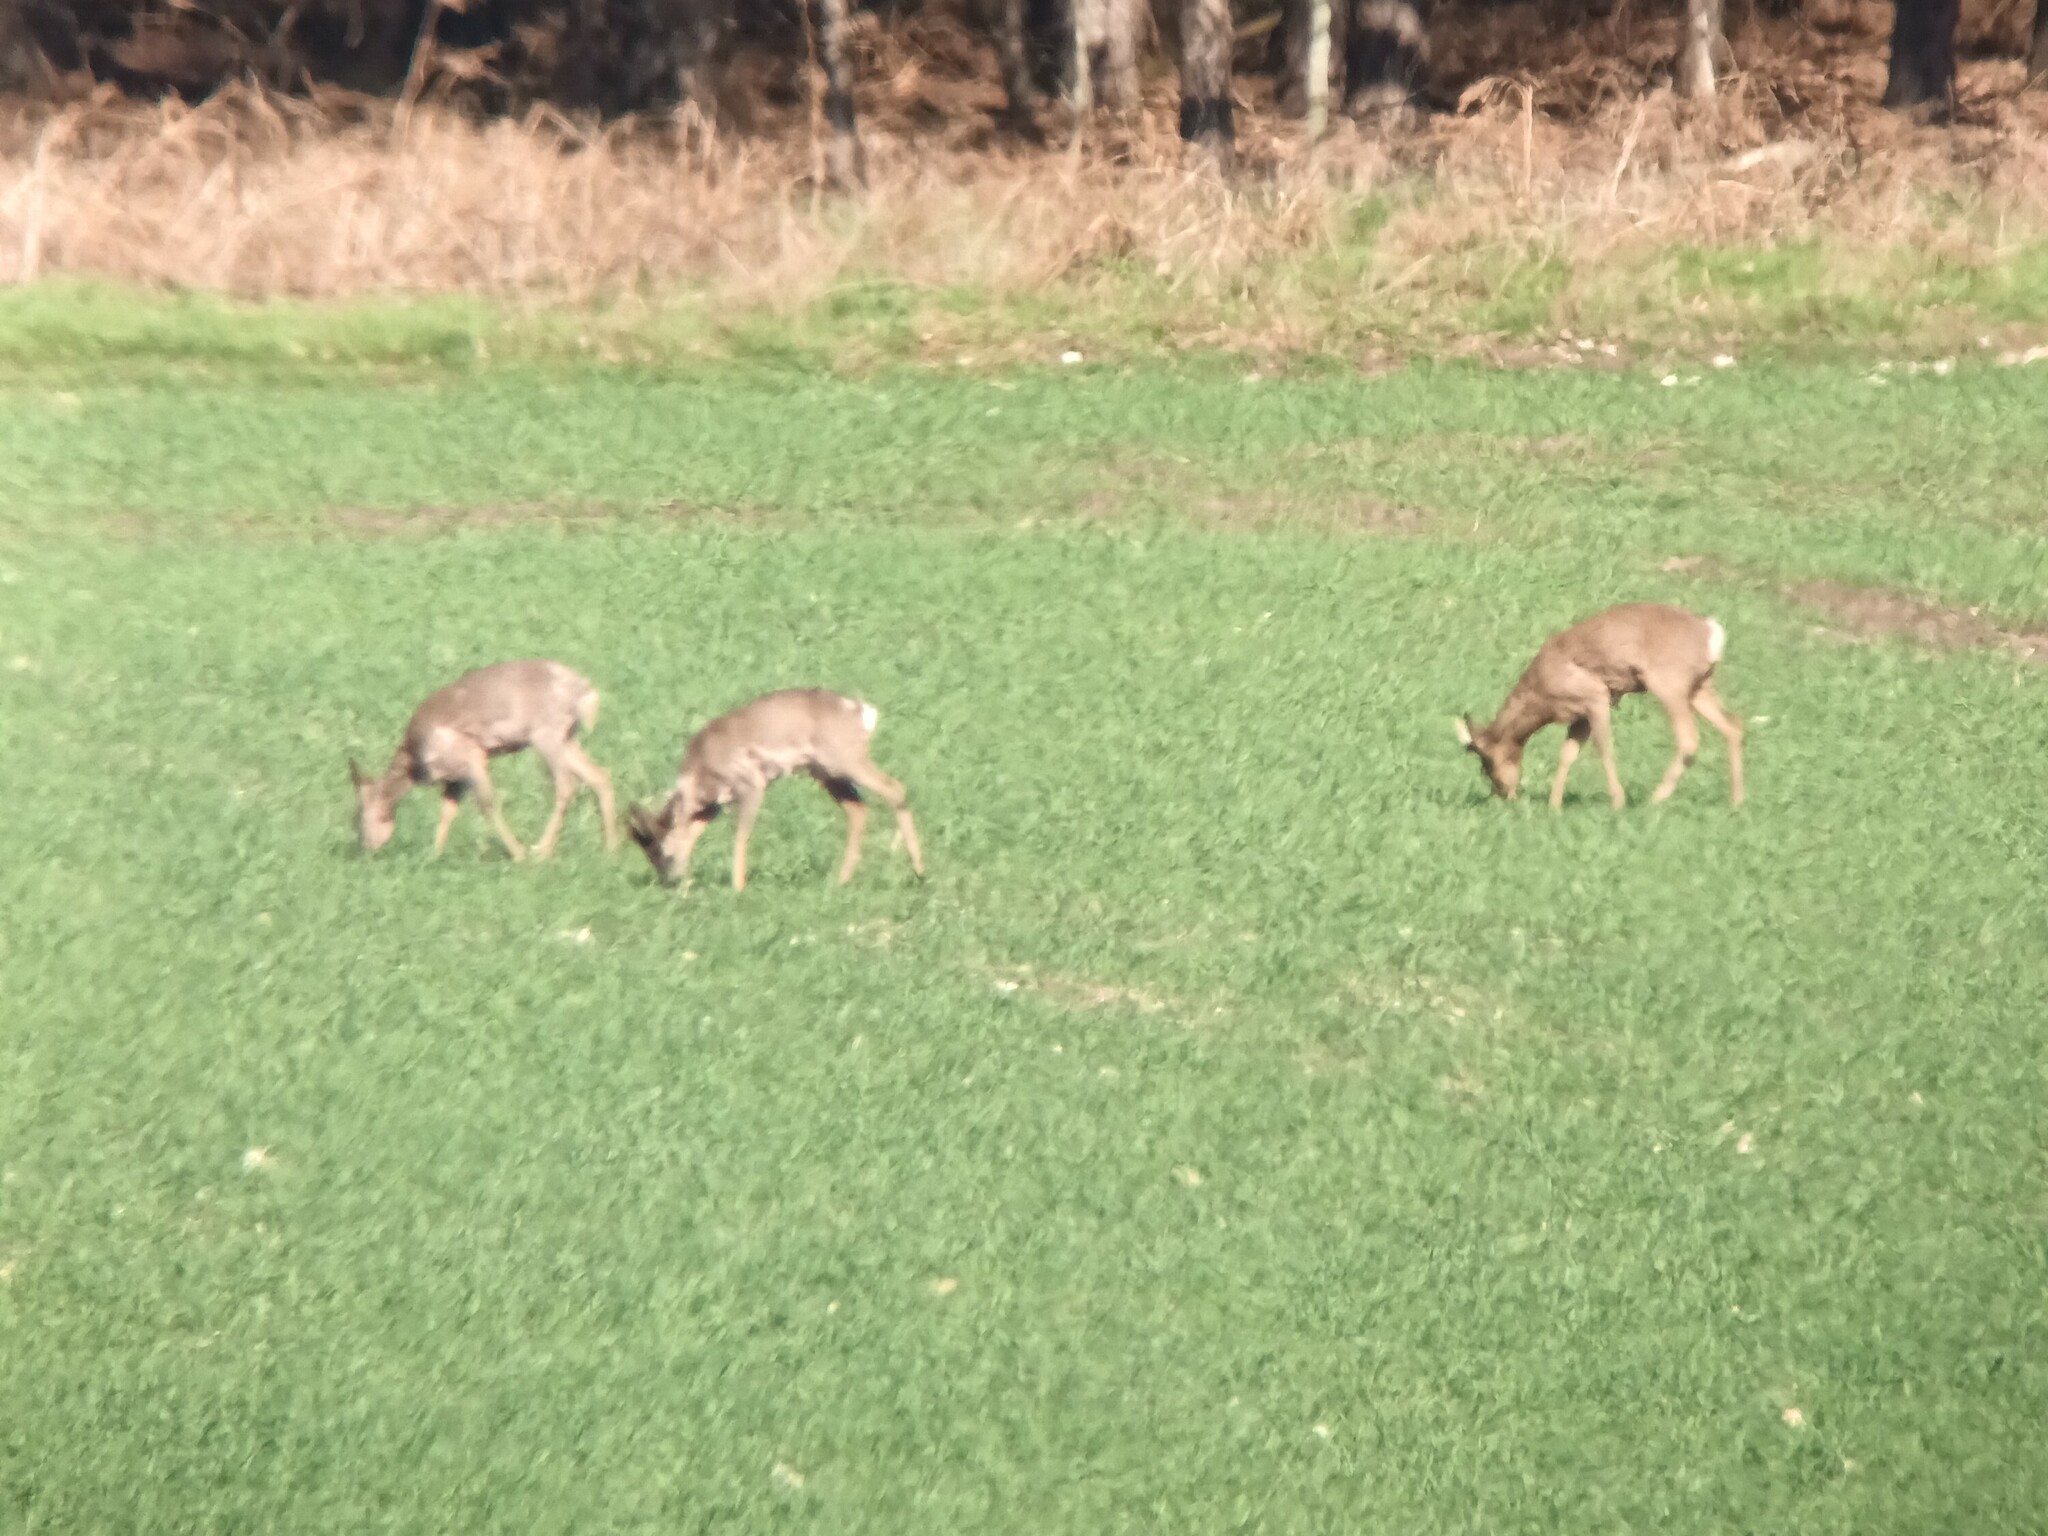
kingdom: Animalia
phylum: Chordata
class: Mammalia
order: Artiodactyla
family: Cervidae
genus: Capreolus
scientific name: Capreolus capreolus
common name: Western roe deer
